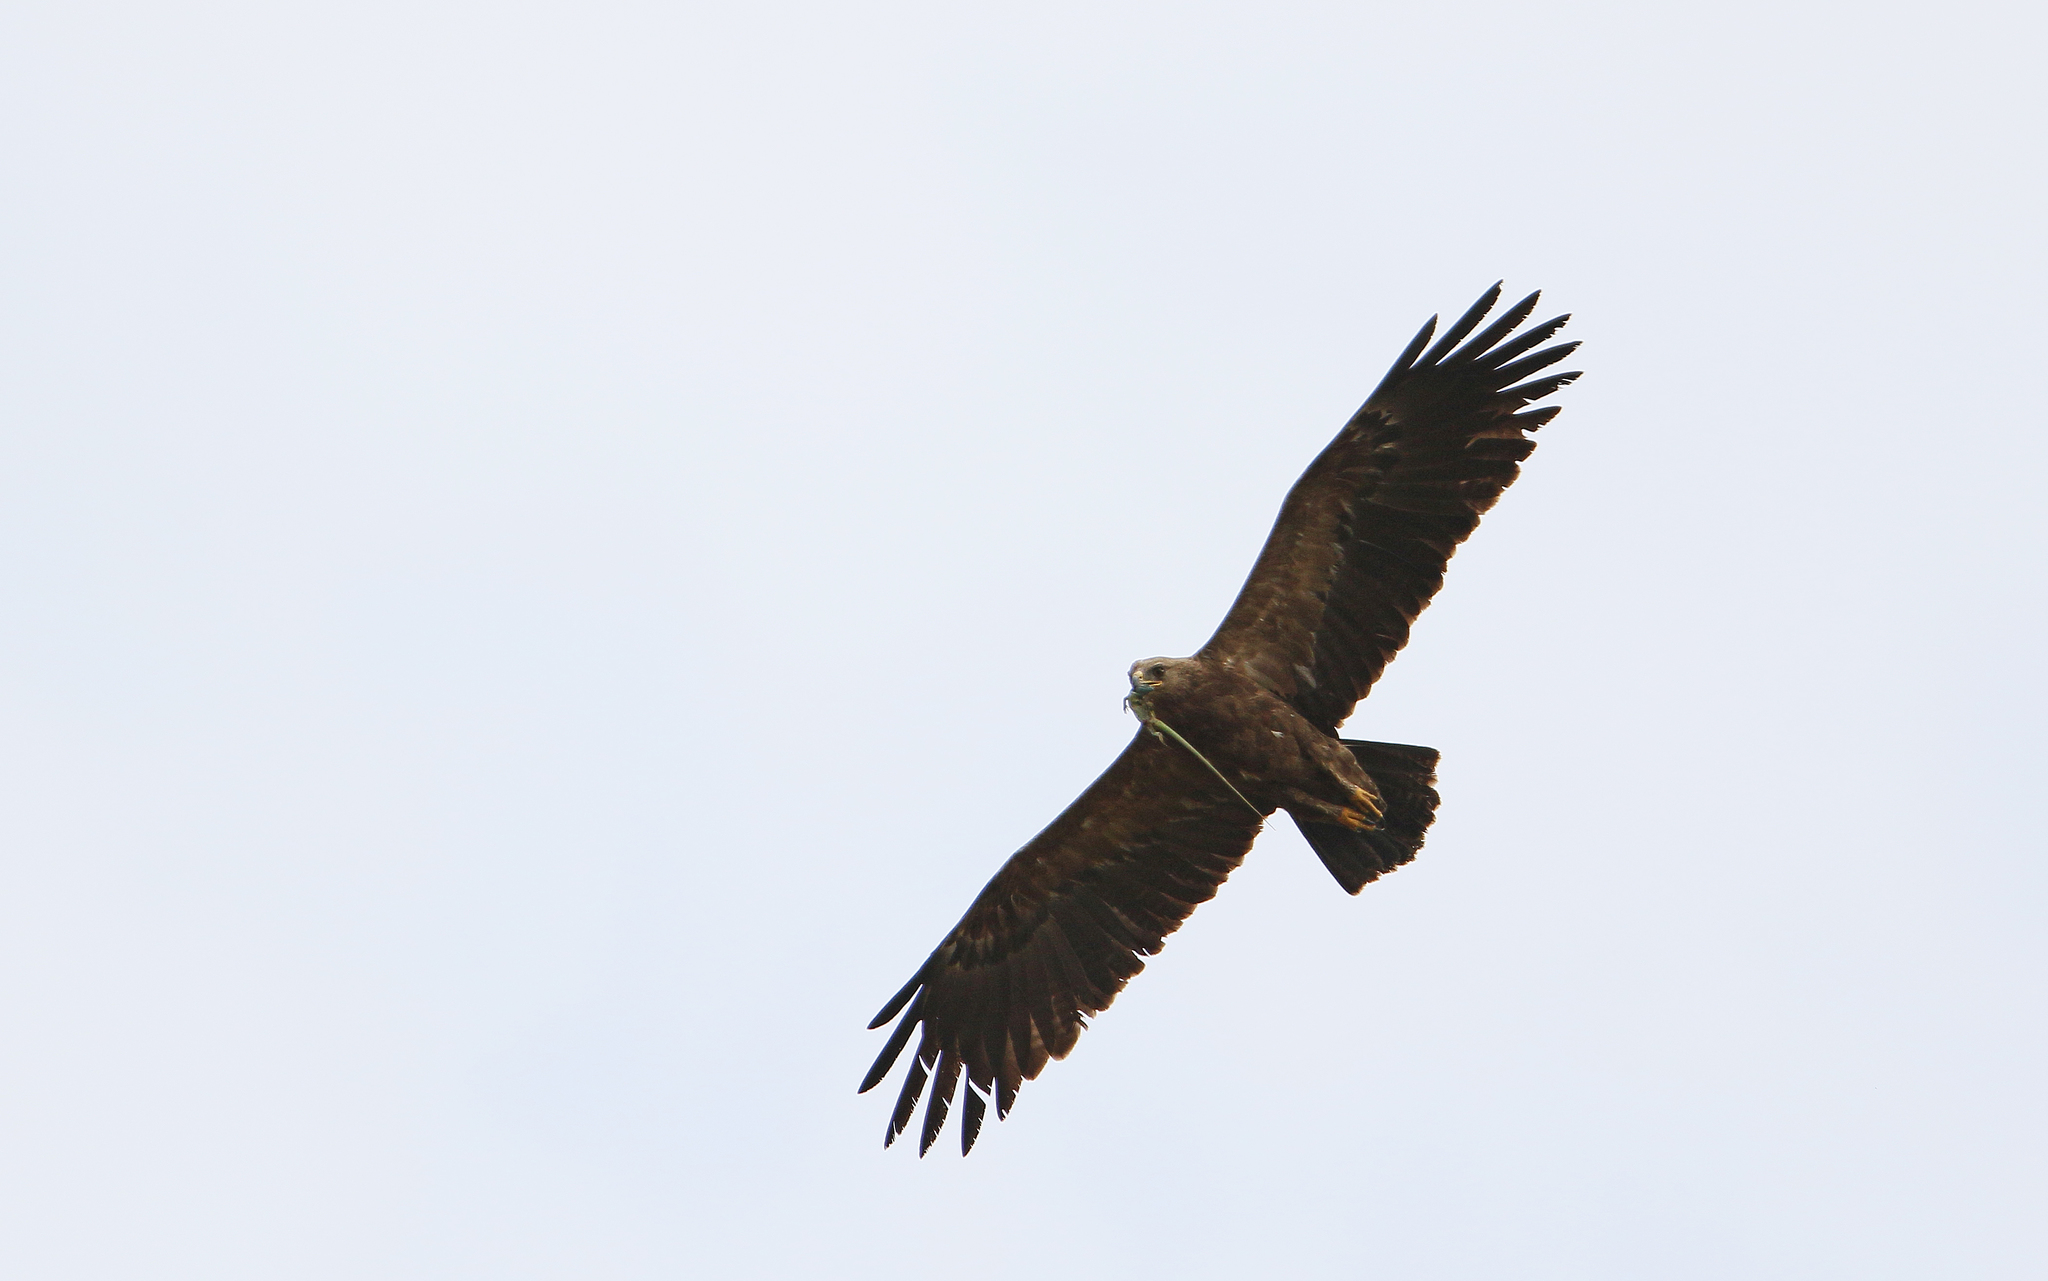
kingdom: Animalia
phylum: Chordata
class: Aves
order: Accipitriformes
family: Accipitridae
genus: Aquila
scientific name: Aquila pomarina
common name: Lesser spotted eagle
